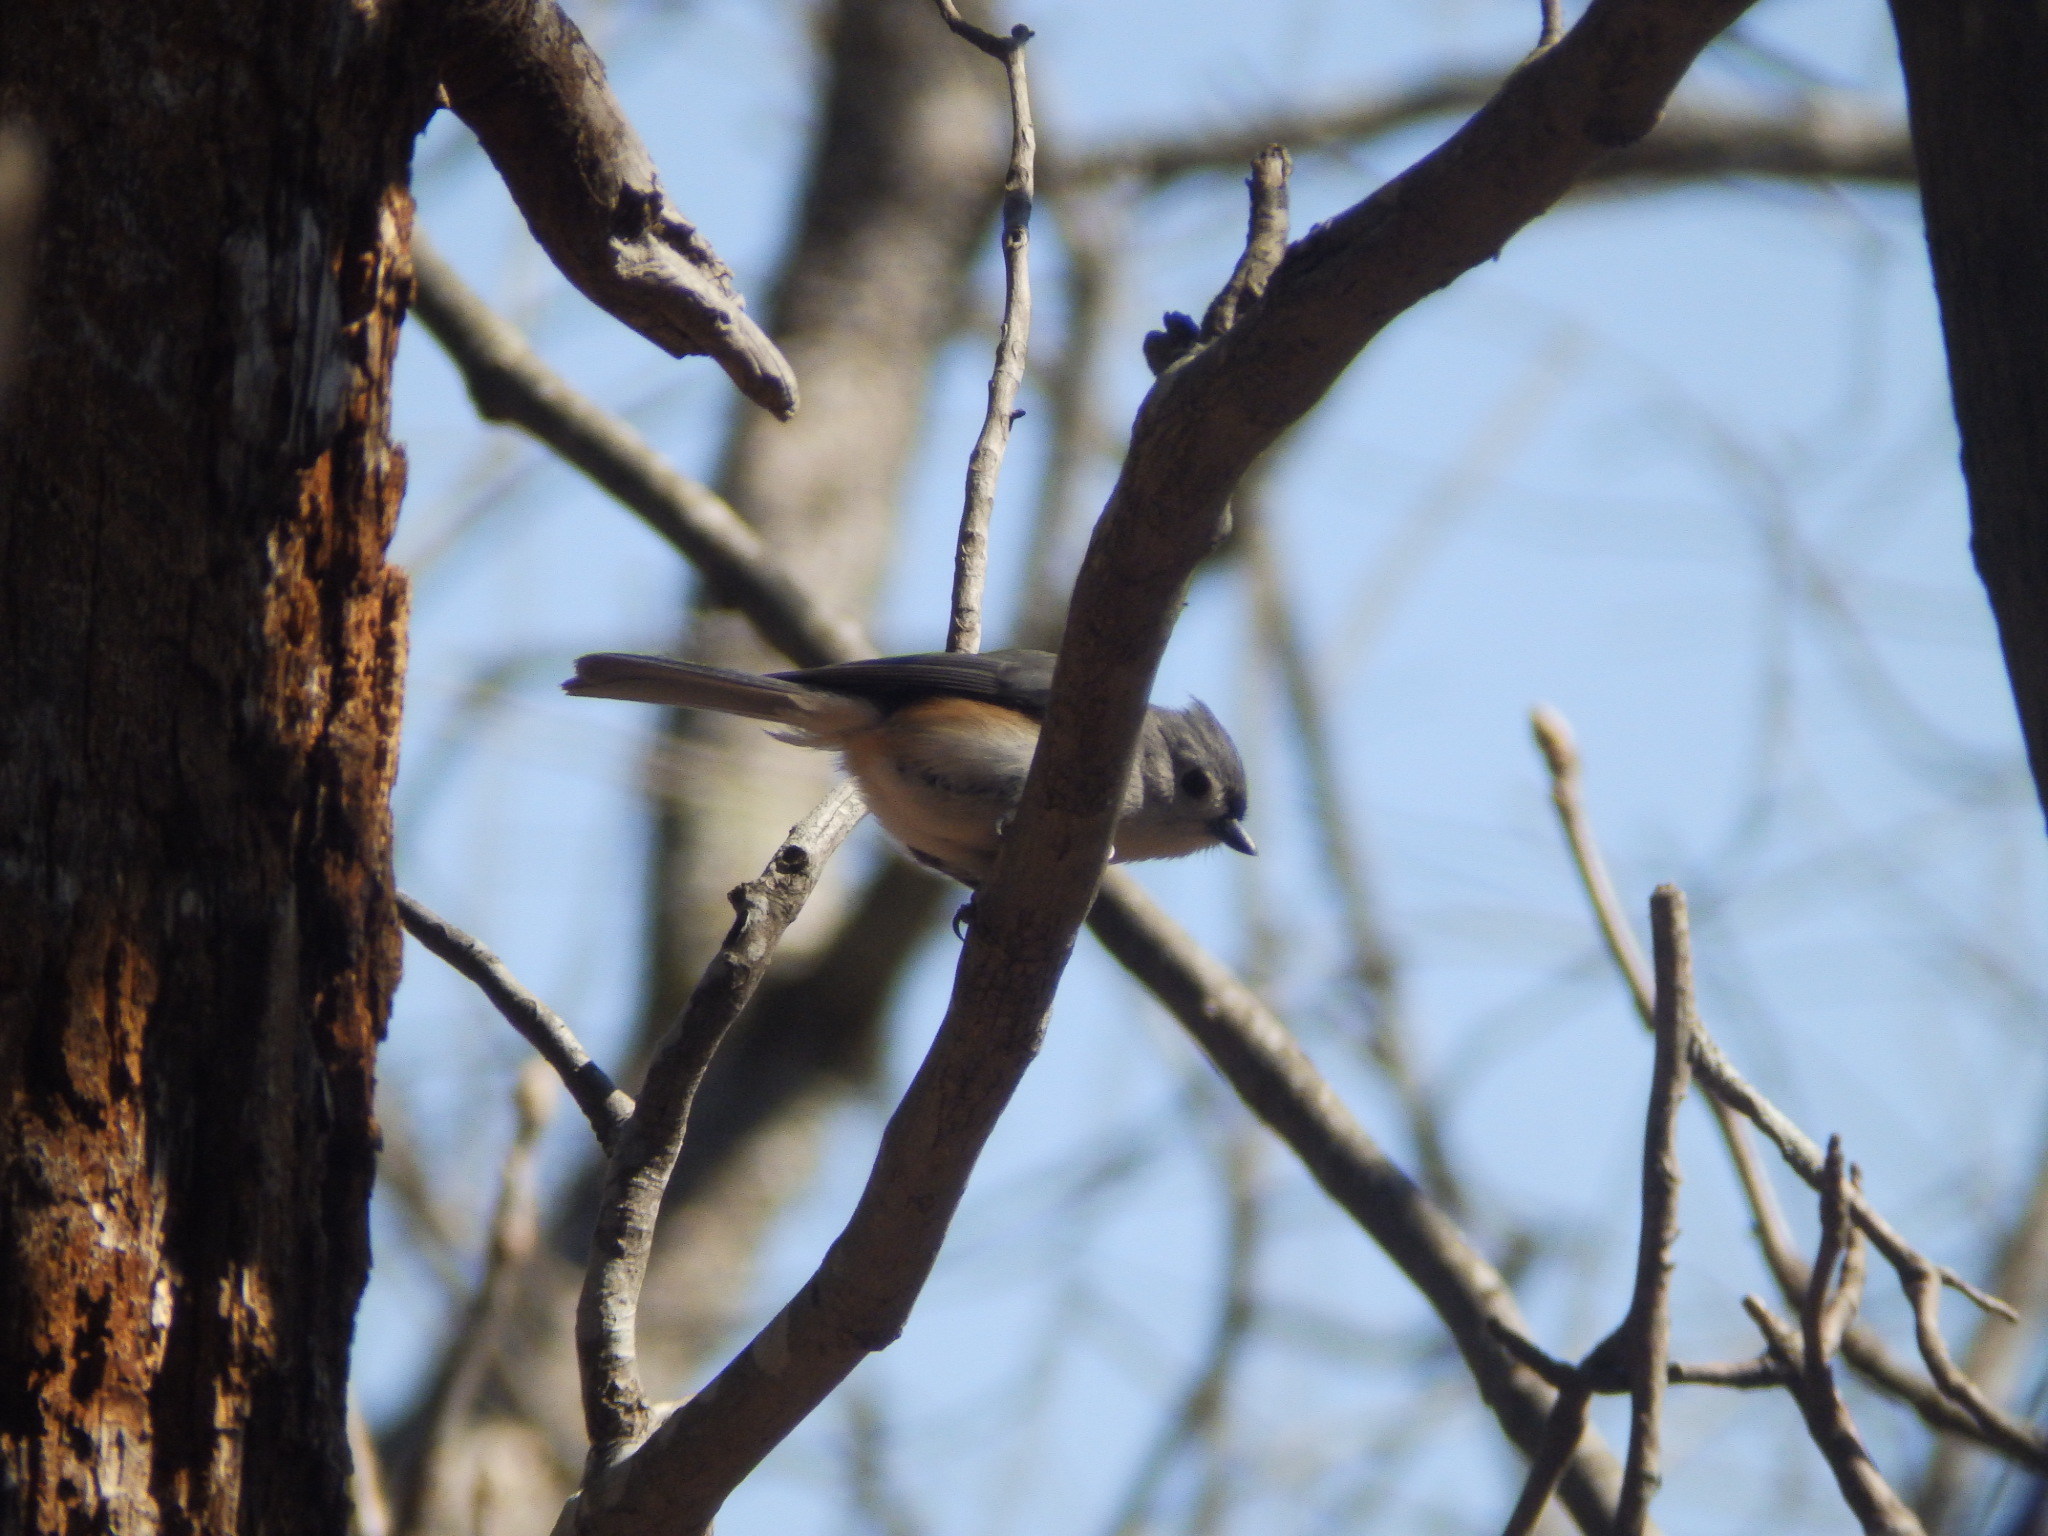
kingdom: Animalia
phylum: Chordata
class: Aves
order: Passeriformes
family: Paridae
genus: Baeolophus
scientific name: Baeolophus bicolor
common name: Tufted titmouse
